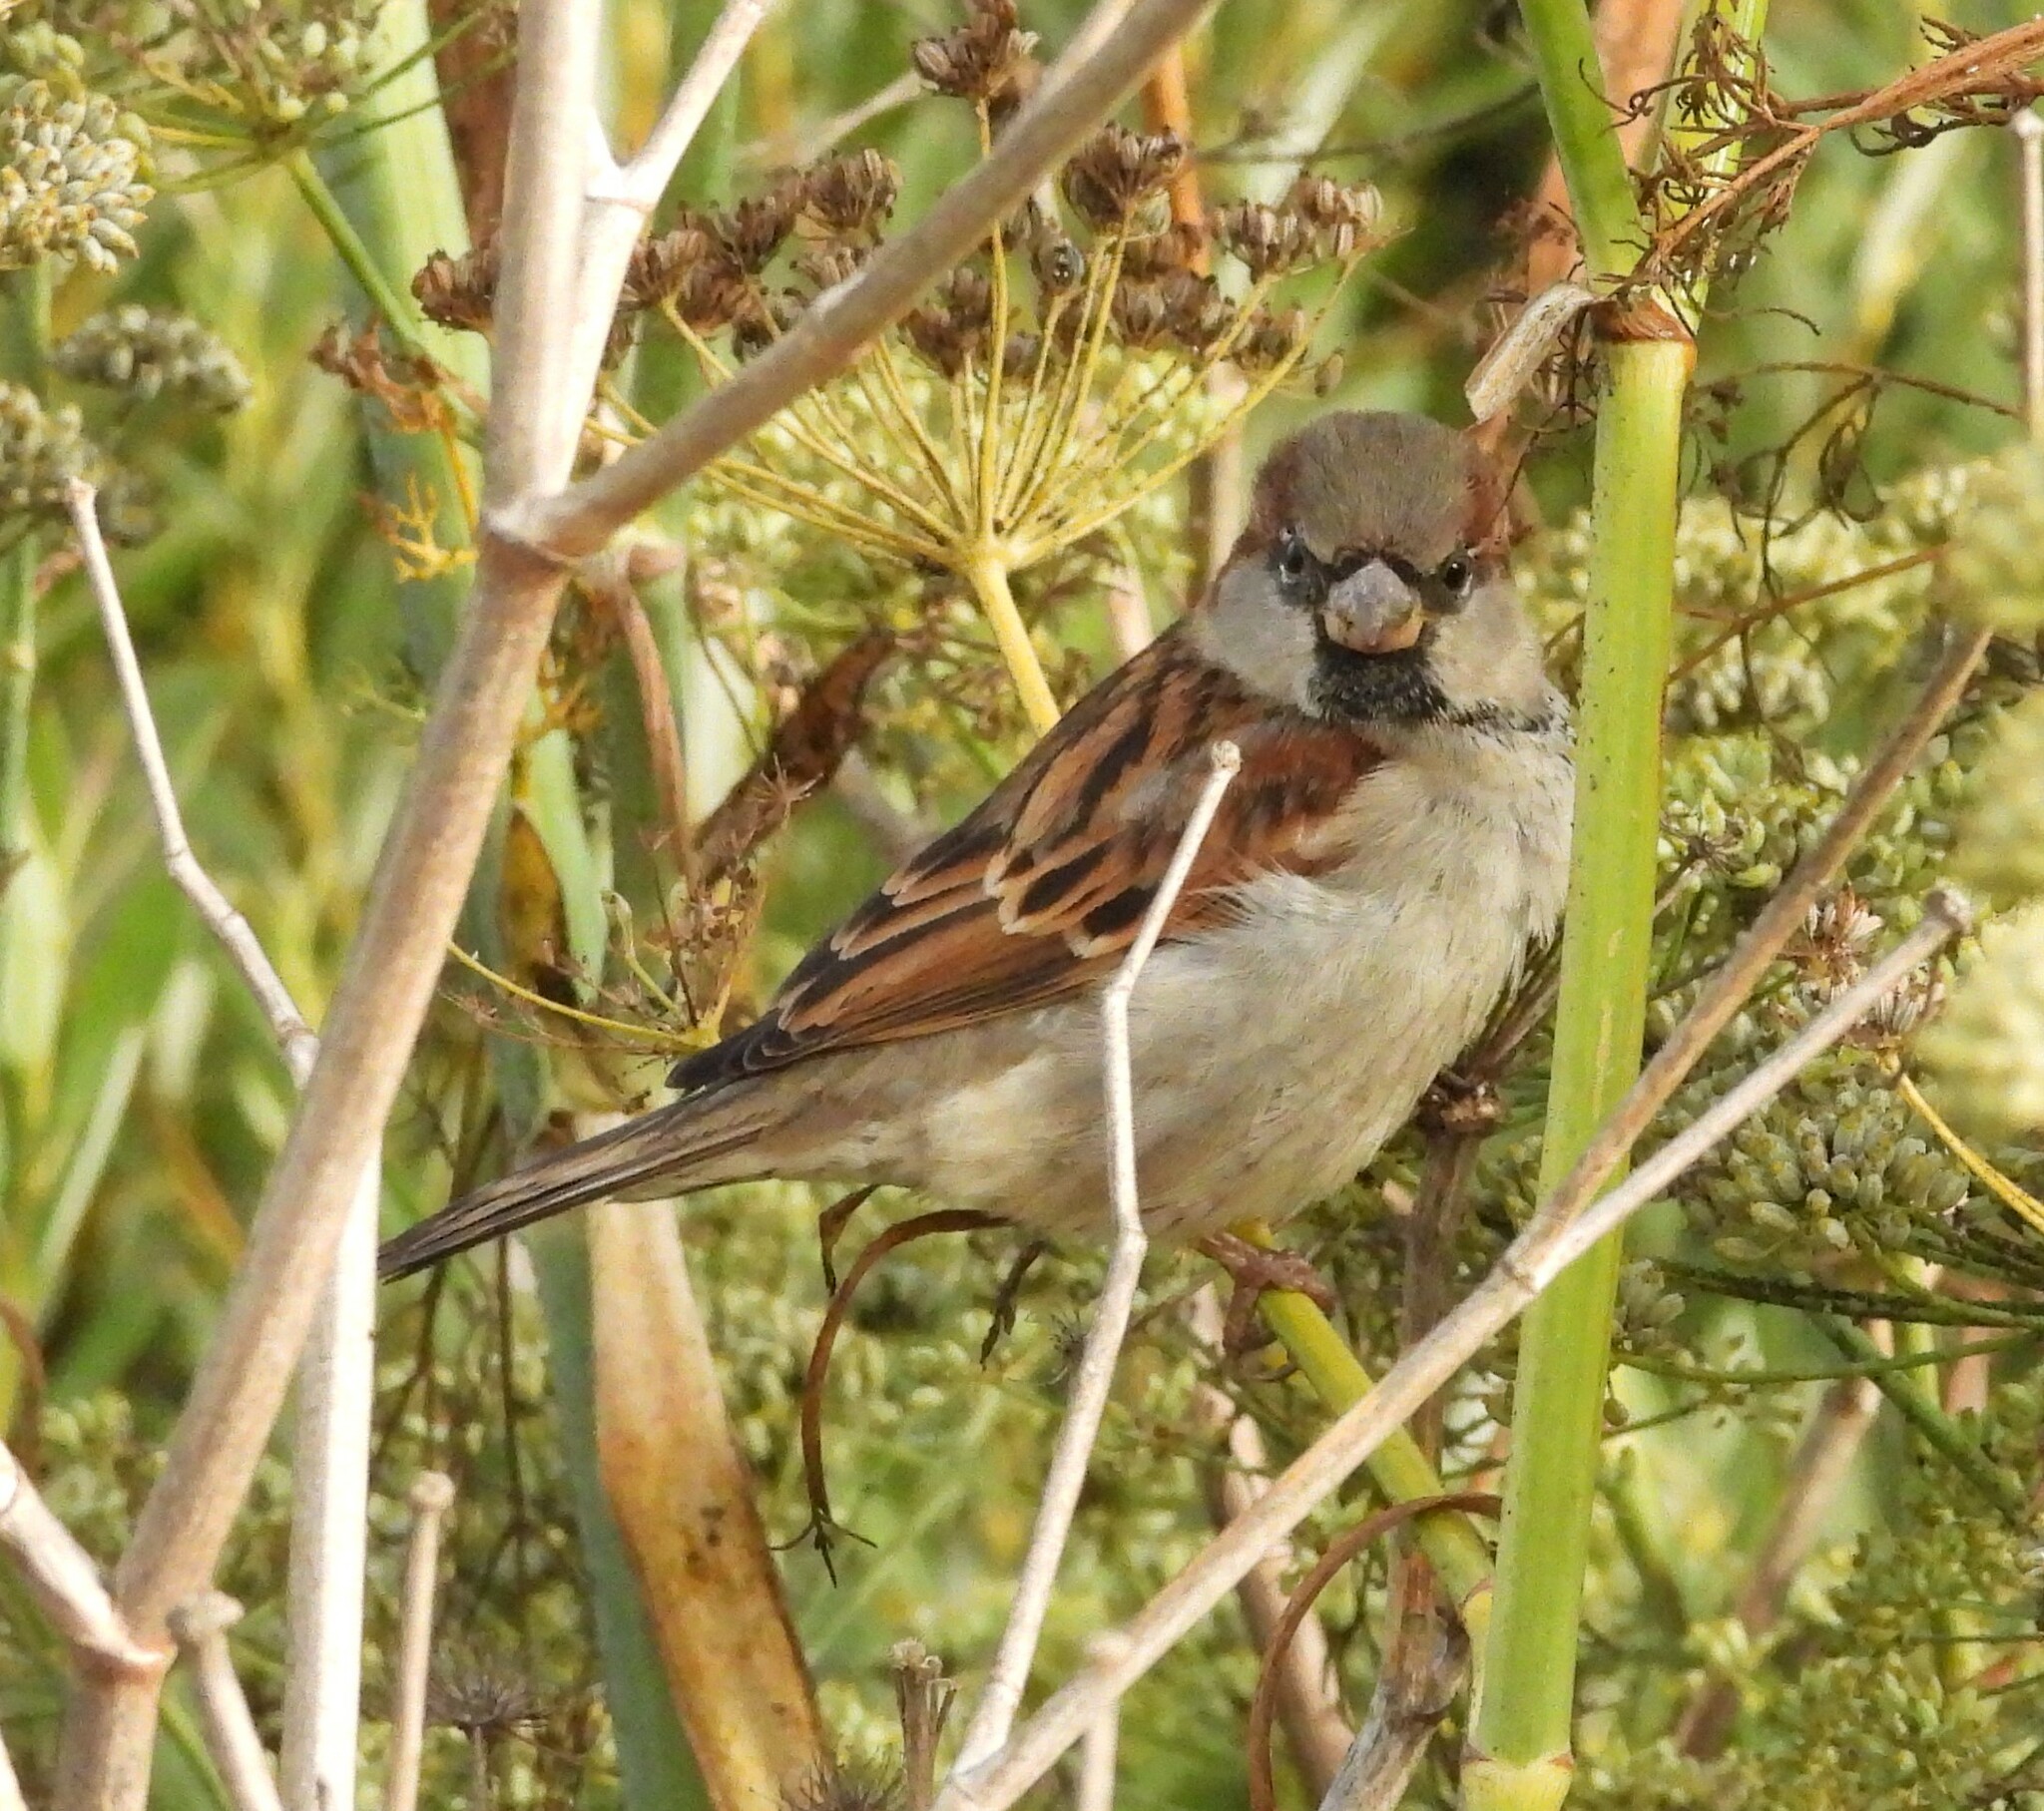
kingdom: Animalia
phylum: Chordata
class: Aves
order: Passeriformes
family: Passeridae
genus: Passer
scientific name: Passer domesticus
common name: House sparrow
